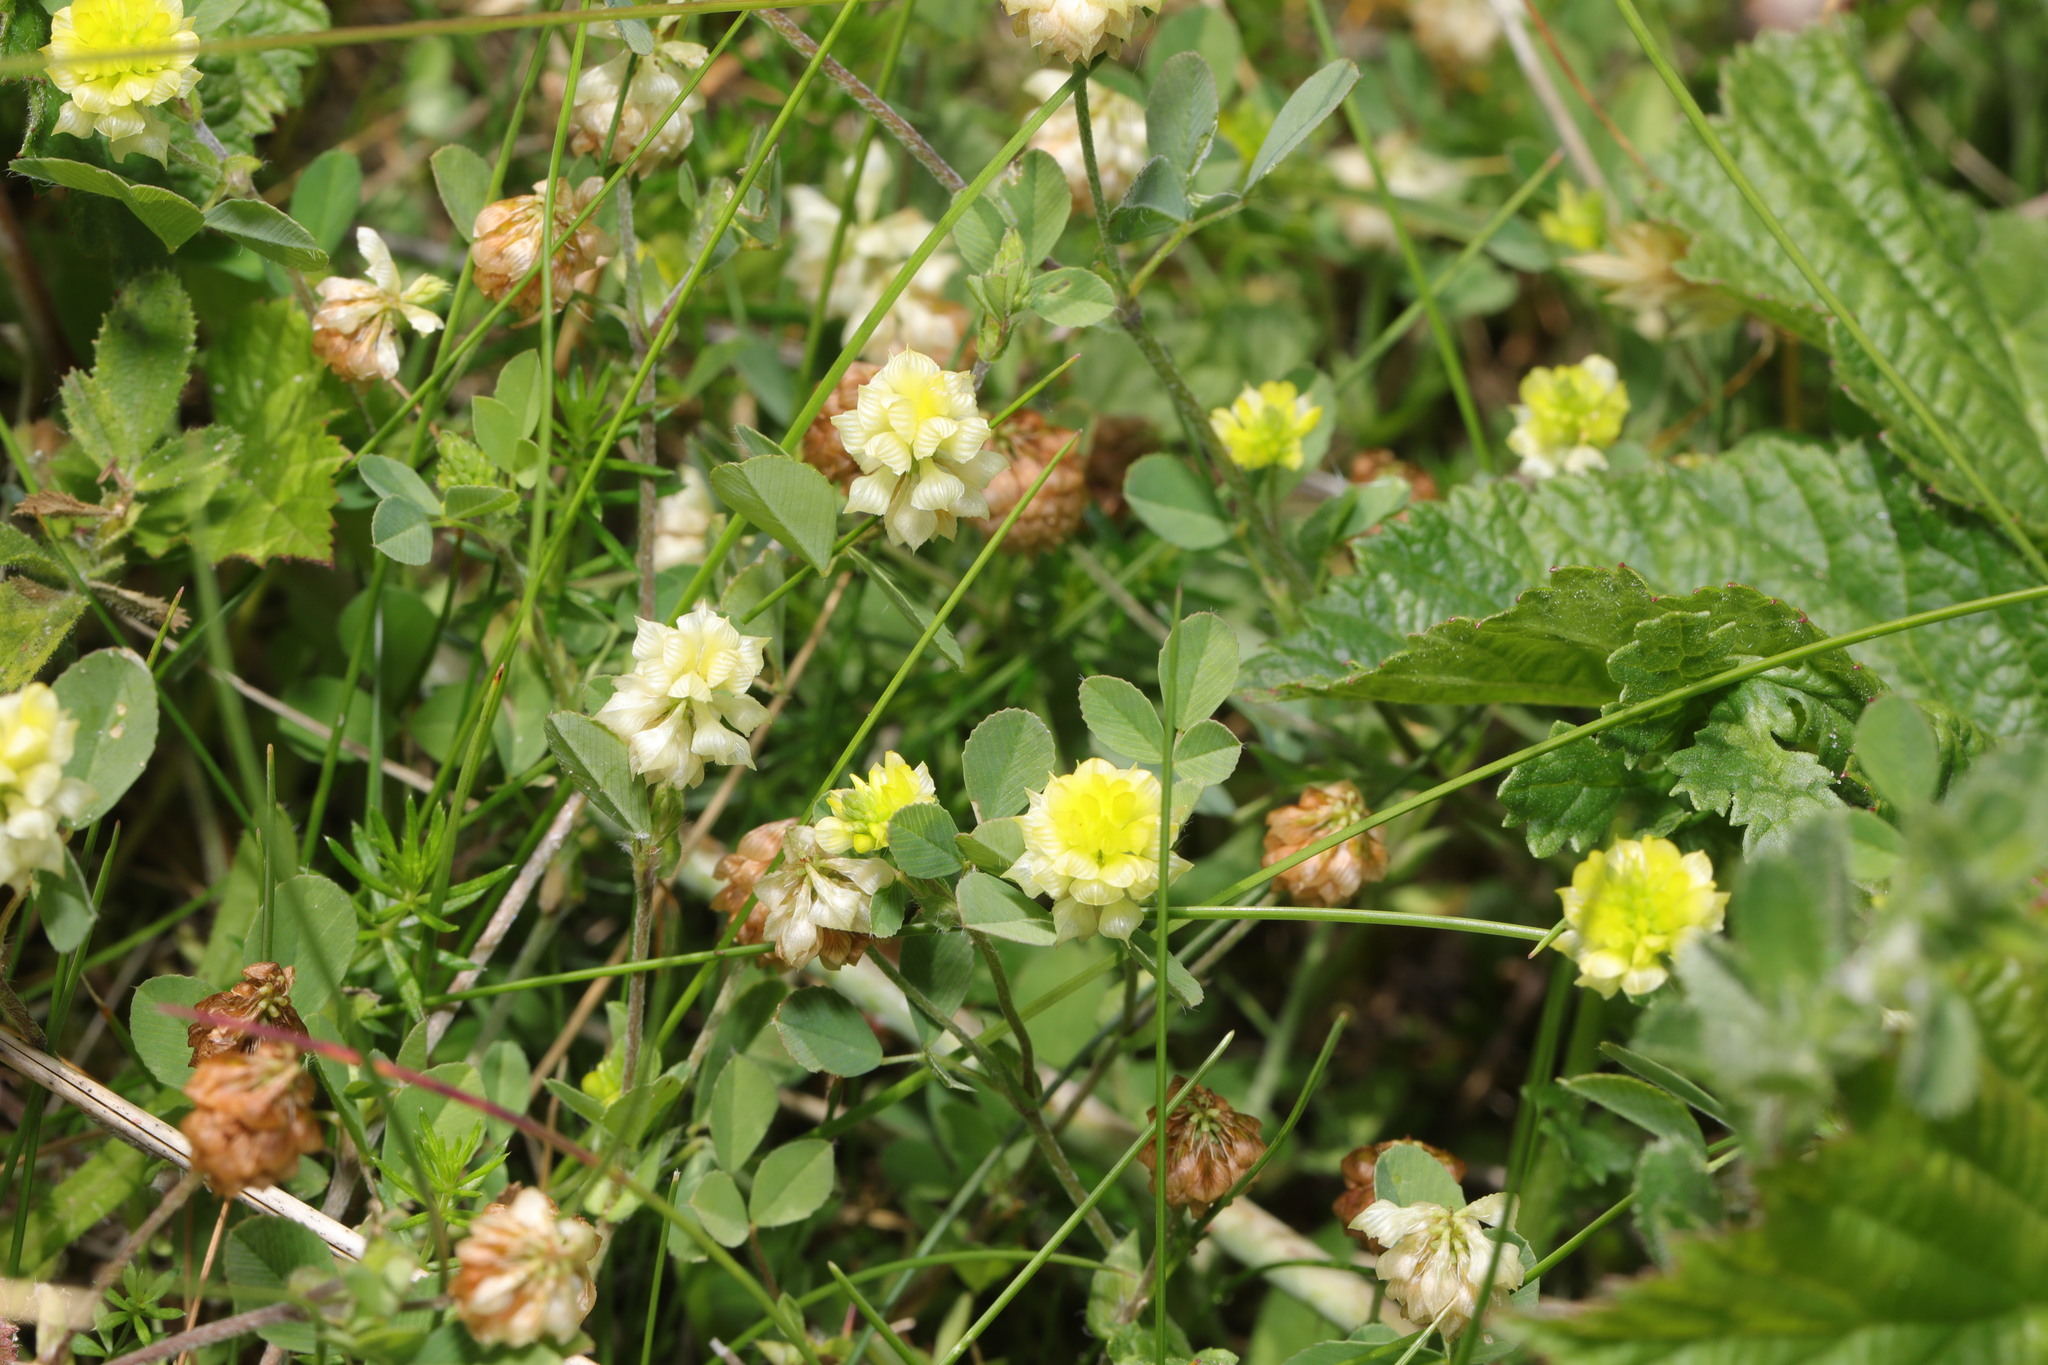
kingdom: Plantae
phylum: Tracheophyta
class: Magnoliopsida
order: Fabales
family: Fabaceae
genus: Trifolium
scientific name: Trifolium campestre
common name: Field clover
